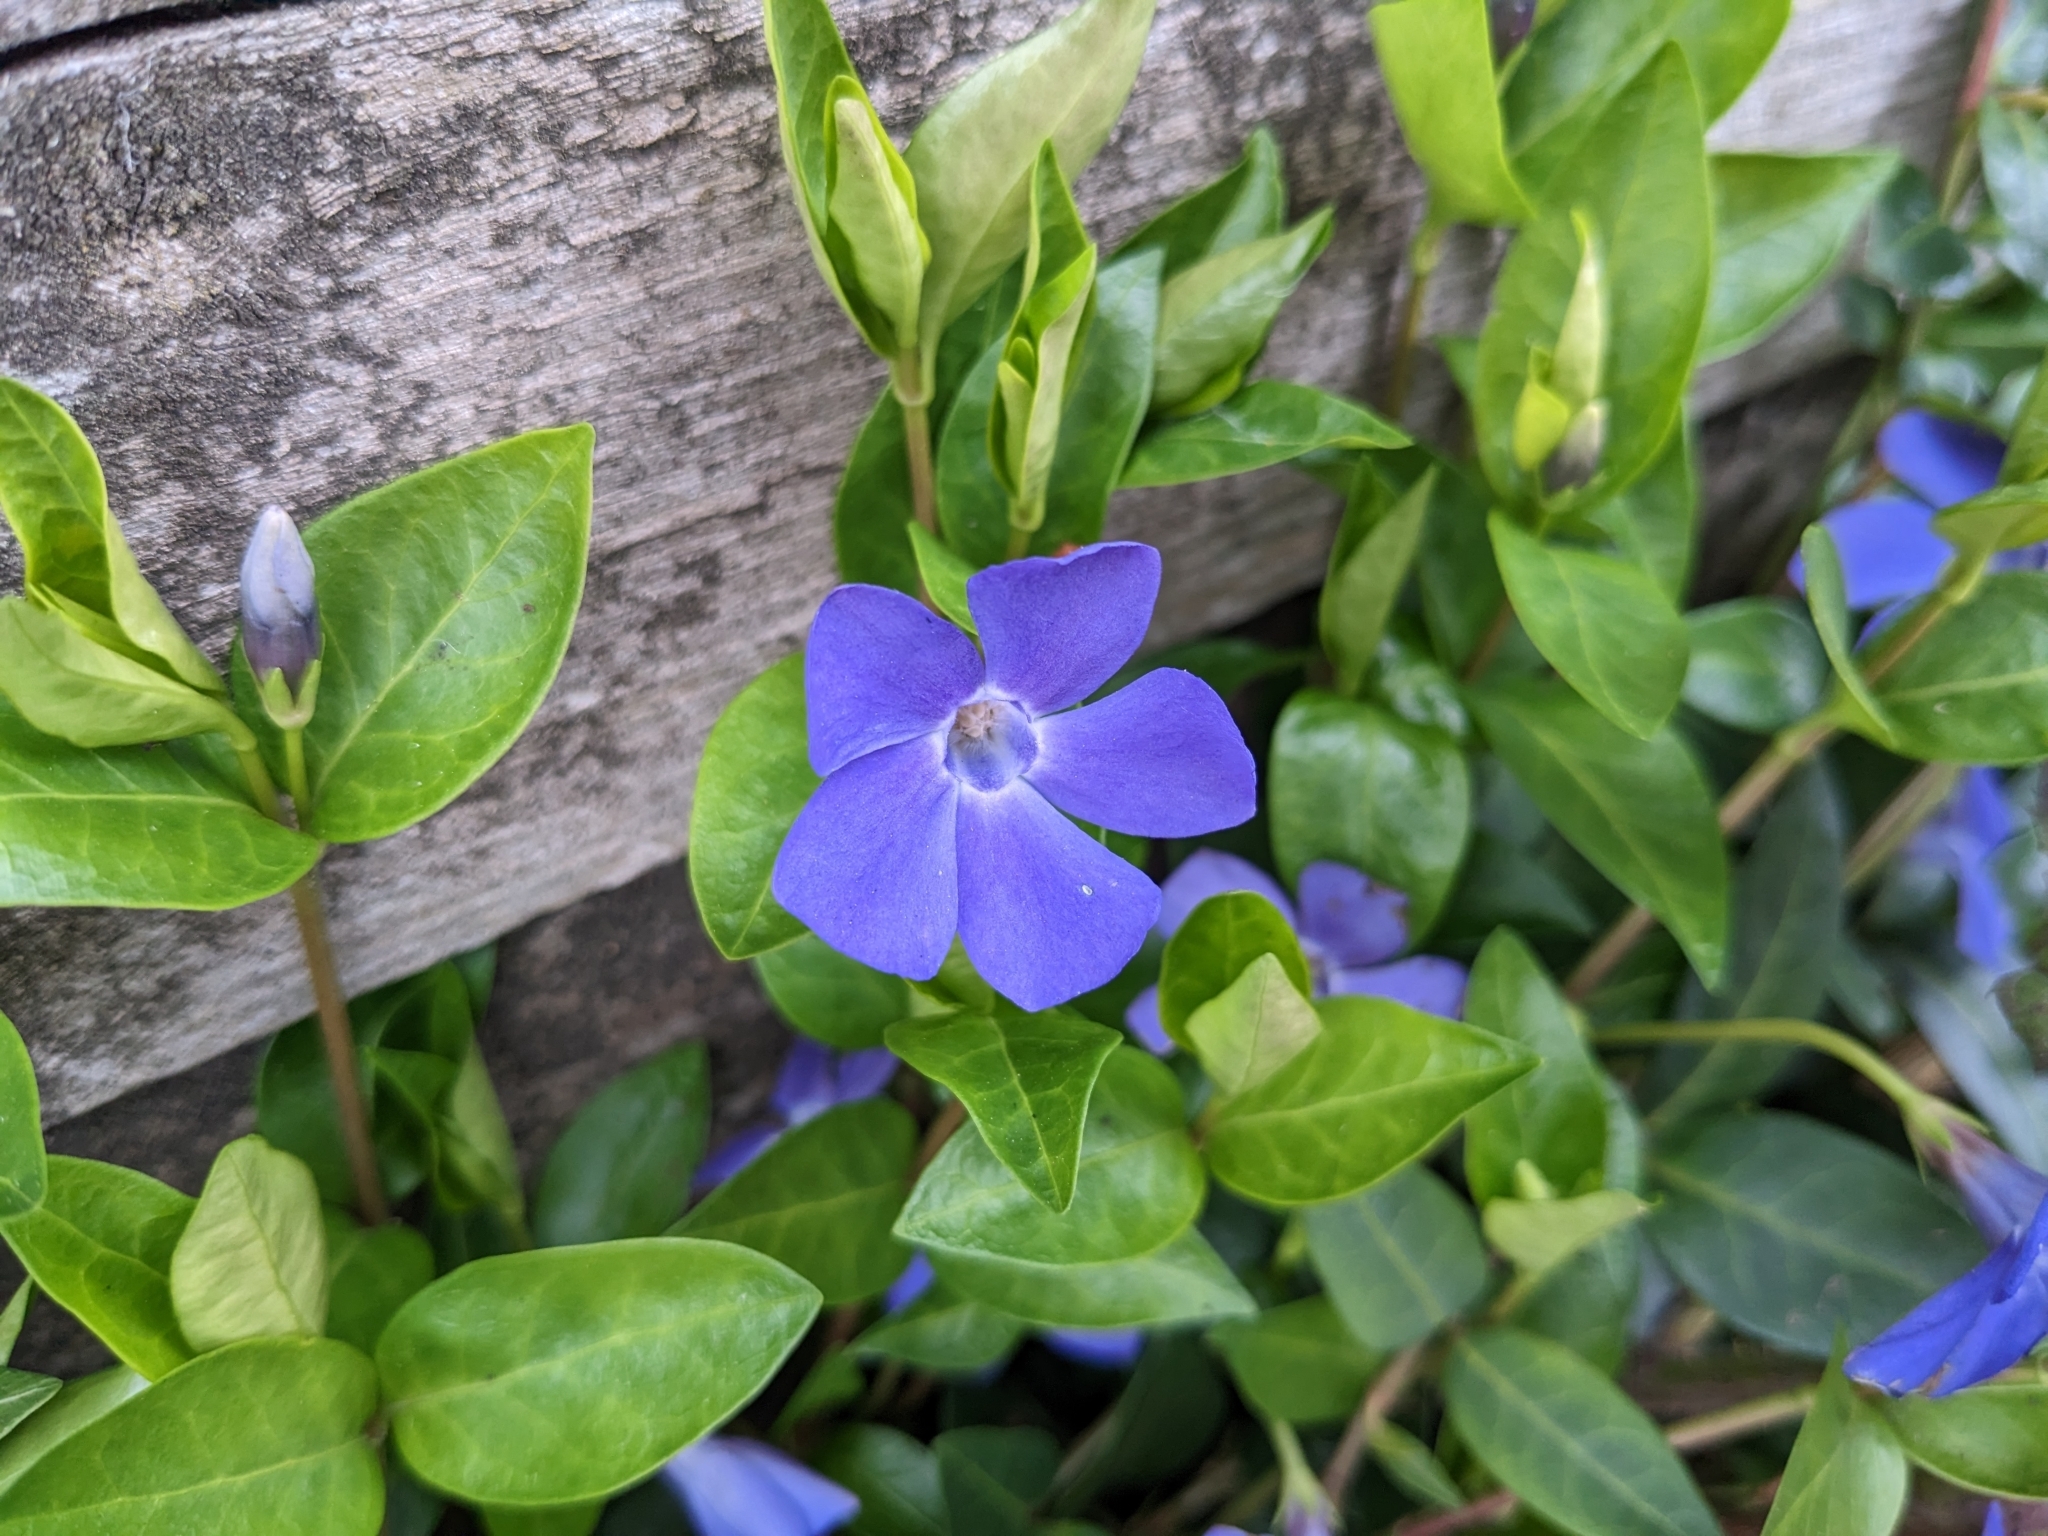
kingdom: Plantae
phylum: Tracheophyta
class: Magnoliopsida
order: Gentianales
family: Apocynaceae
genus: Vinca
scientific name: Vinca major
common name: Greater periwinkle
